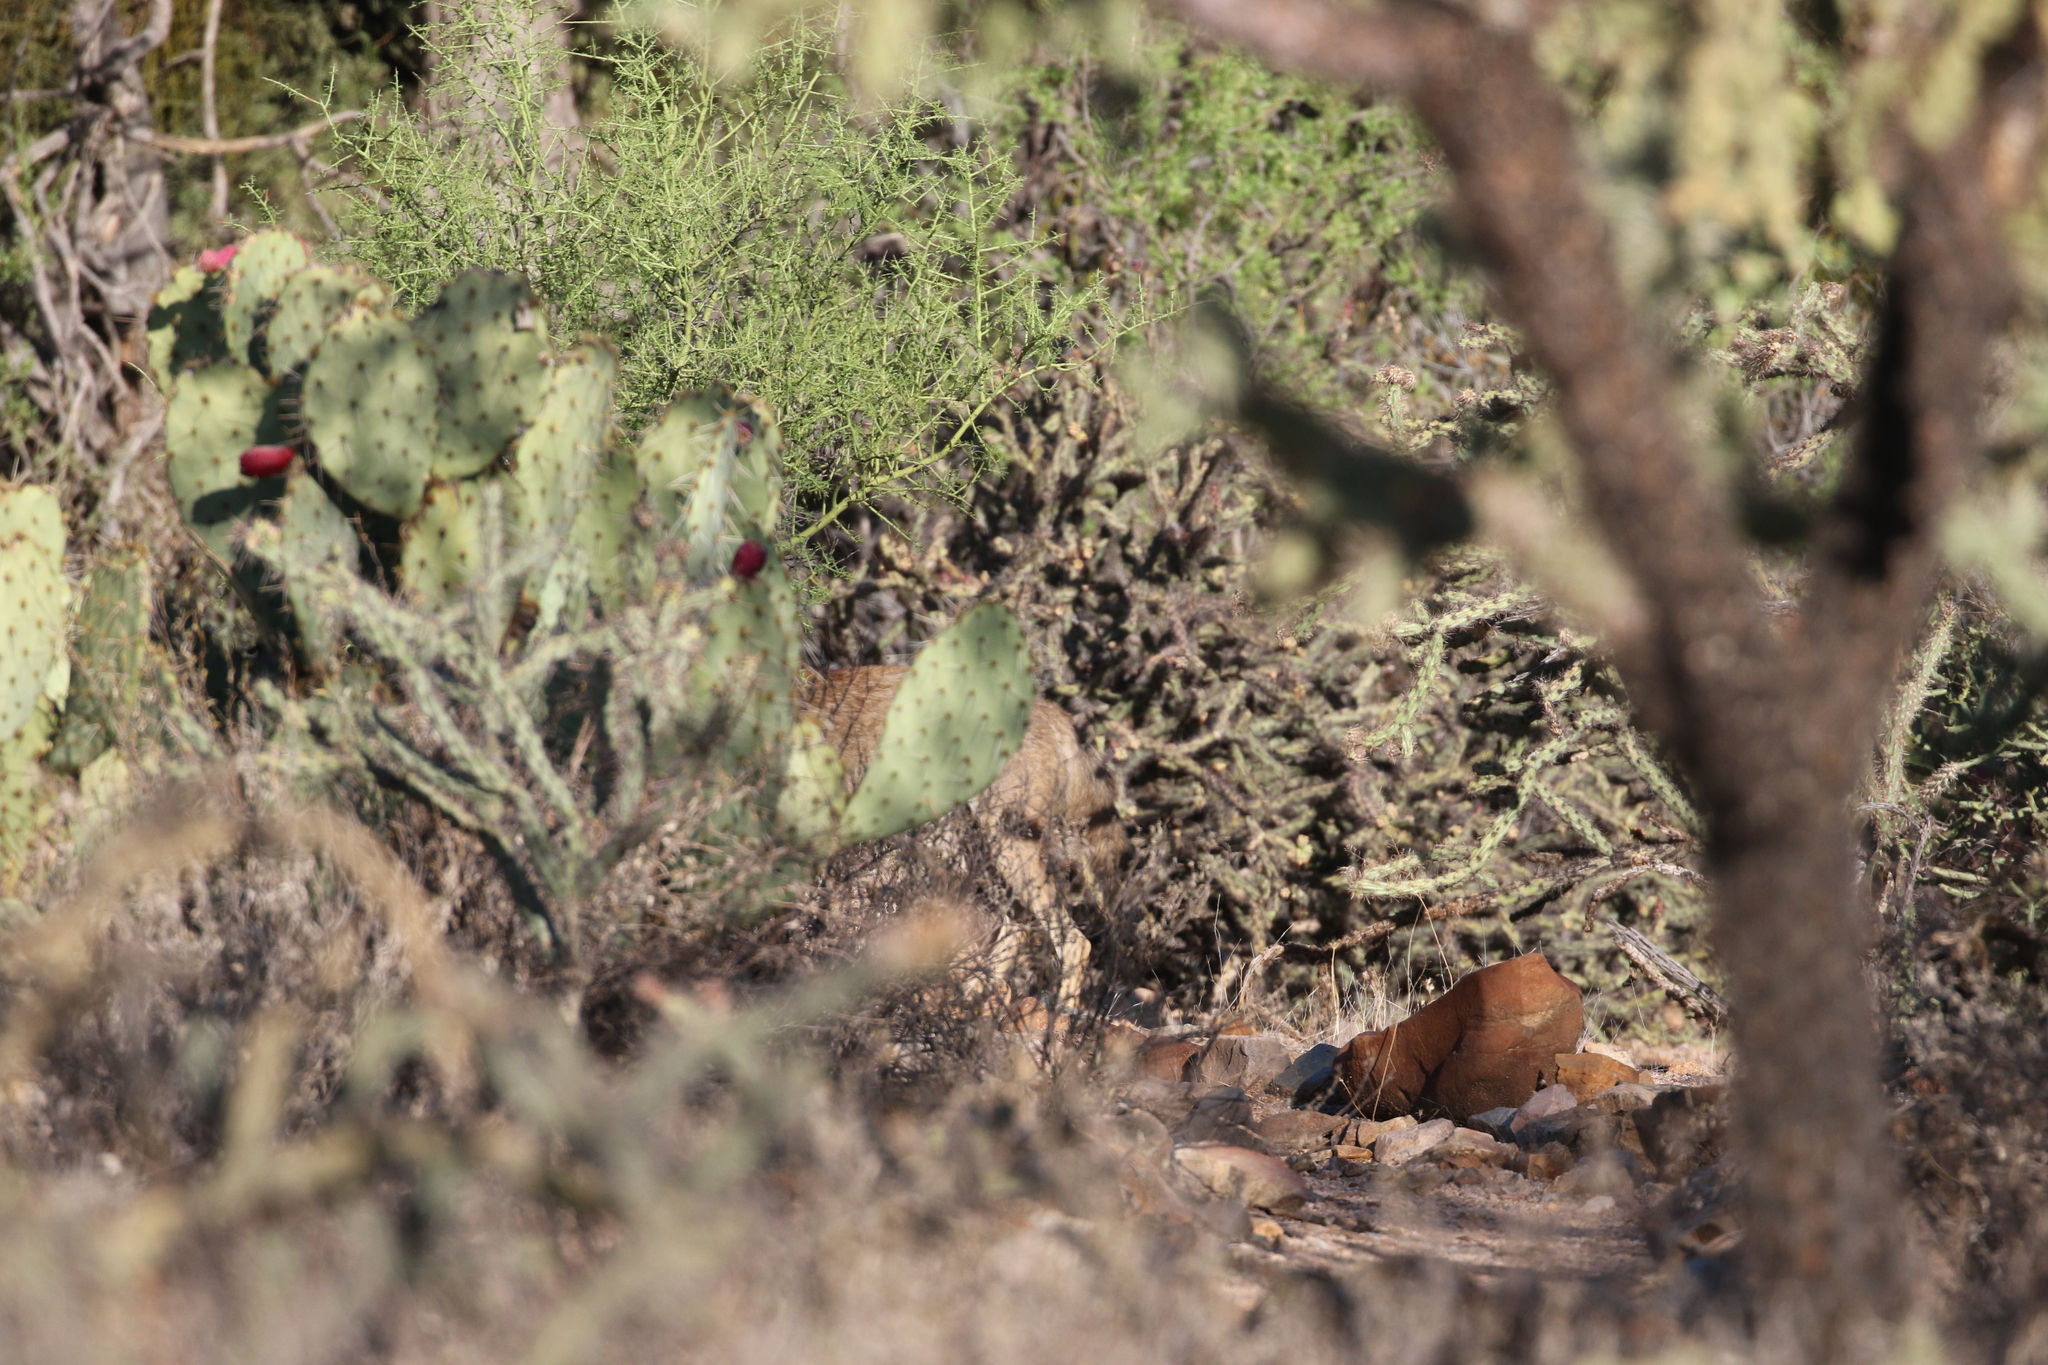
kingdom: Animalia
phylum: Chordata
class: Mammalia
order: Carnivora
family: Canidae
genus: Canis
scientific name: Canis latrans
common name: Coyote
